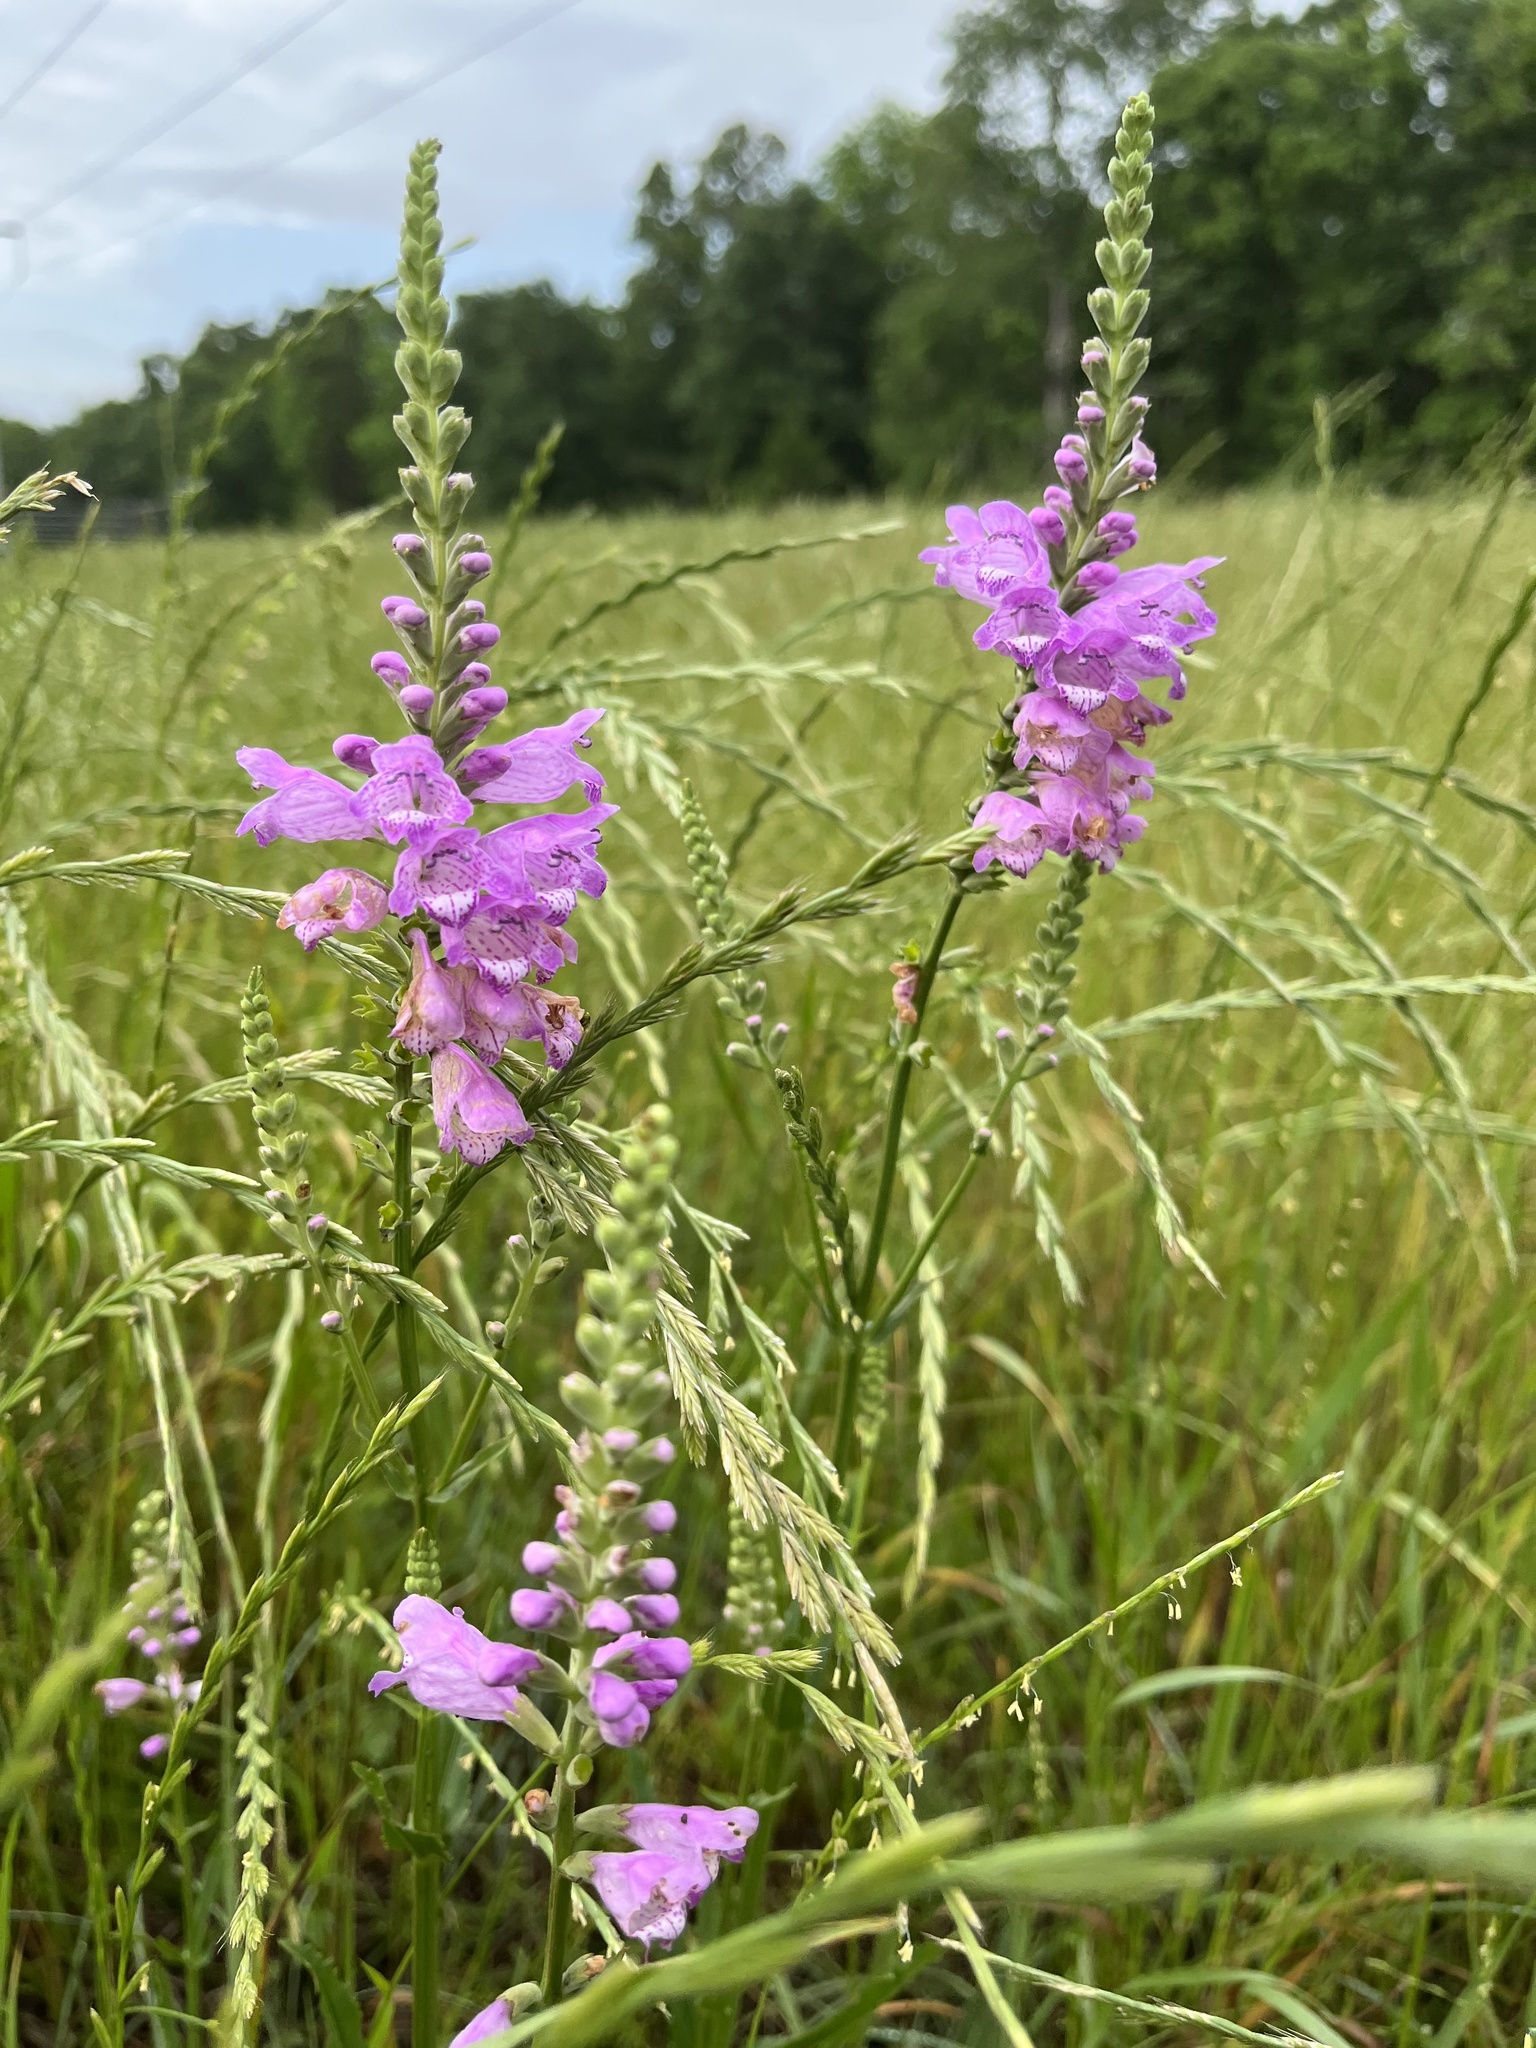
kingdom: Plantae
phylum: Tracheophyta
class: Magnoliopsida
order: Lamiales
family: Lamiaceae
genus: Physostegia
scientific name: Physostegia virginiana
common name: Obedient-plant
